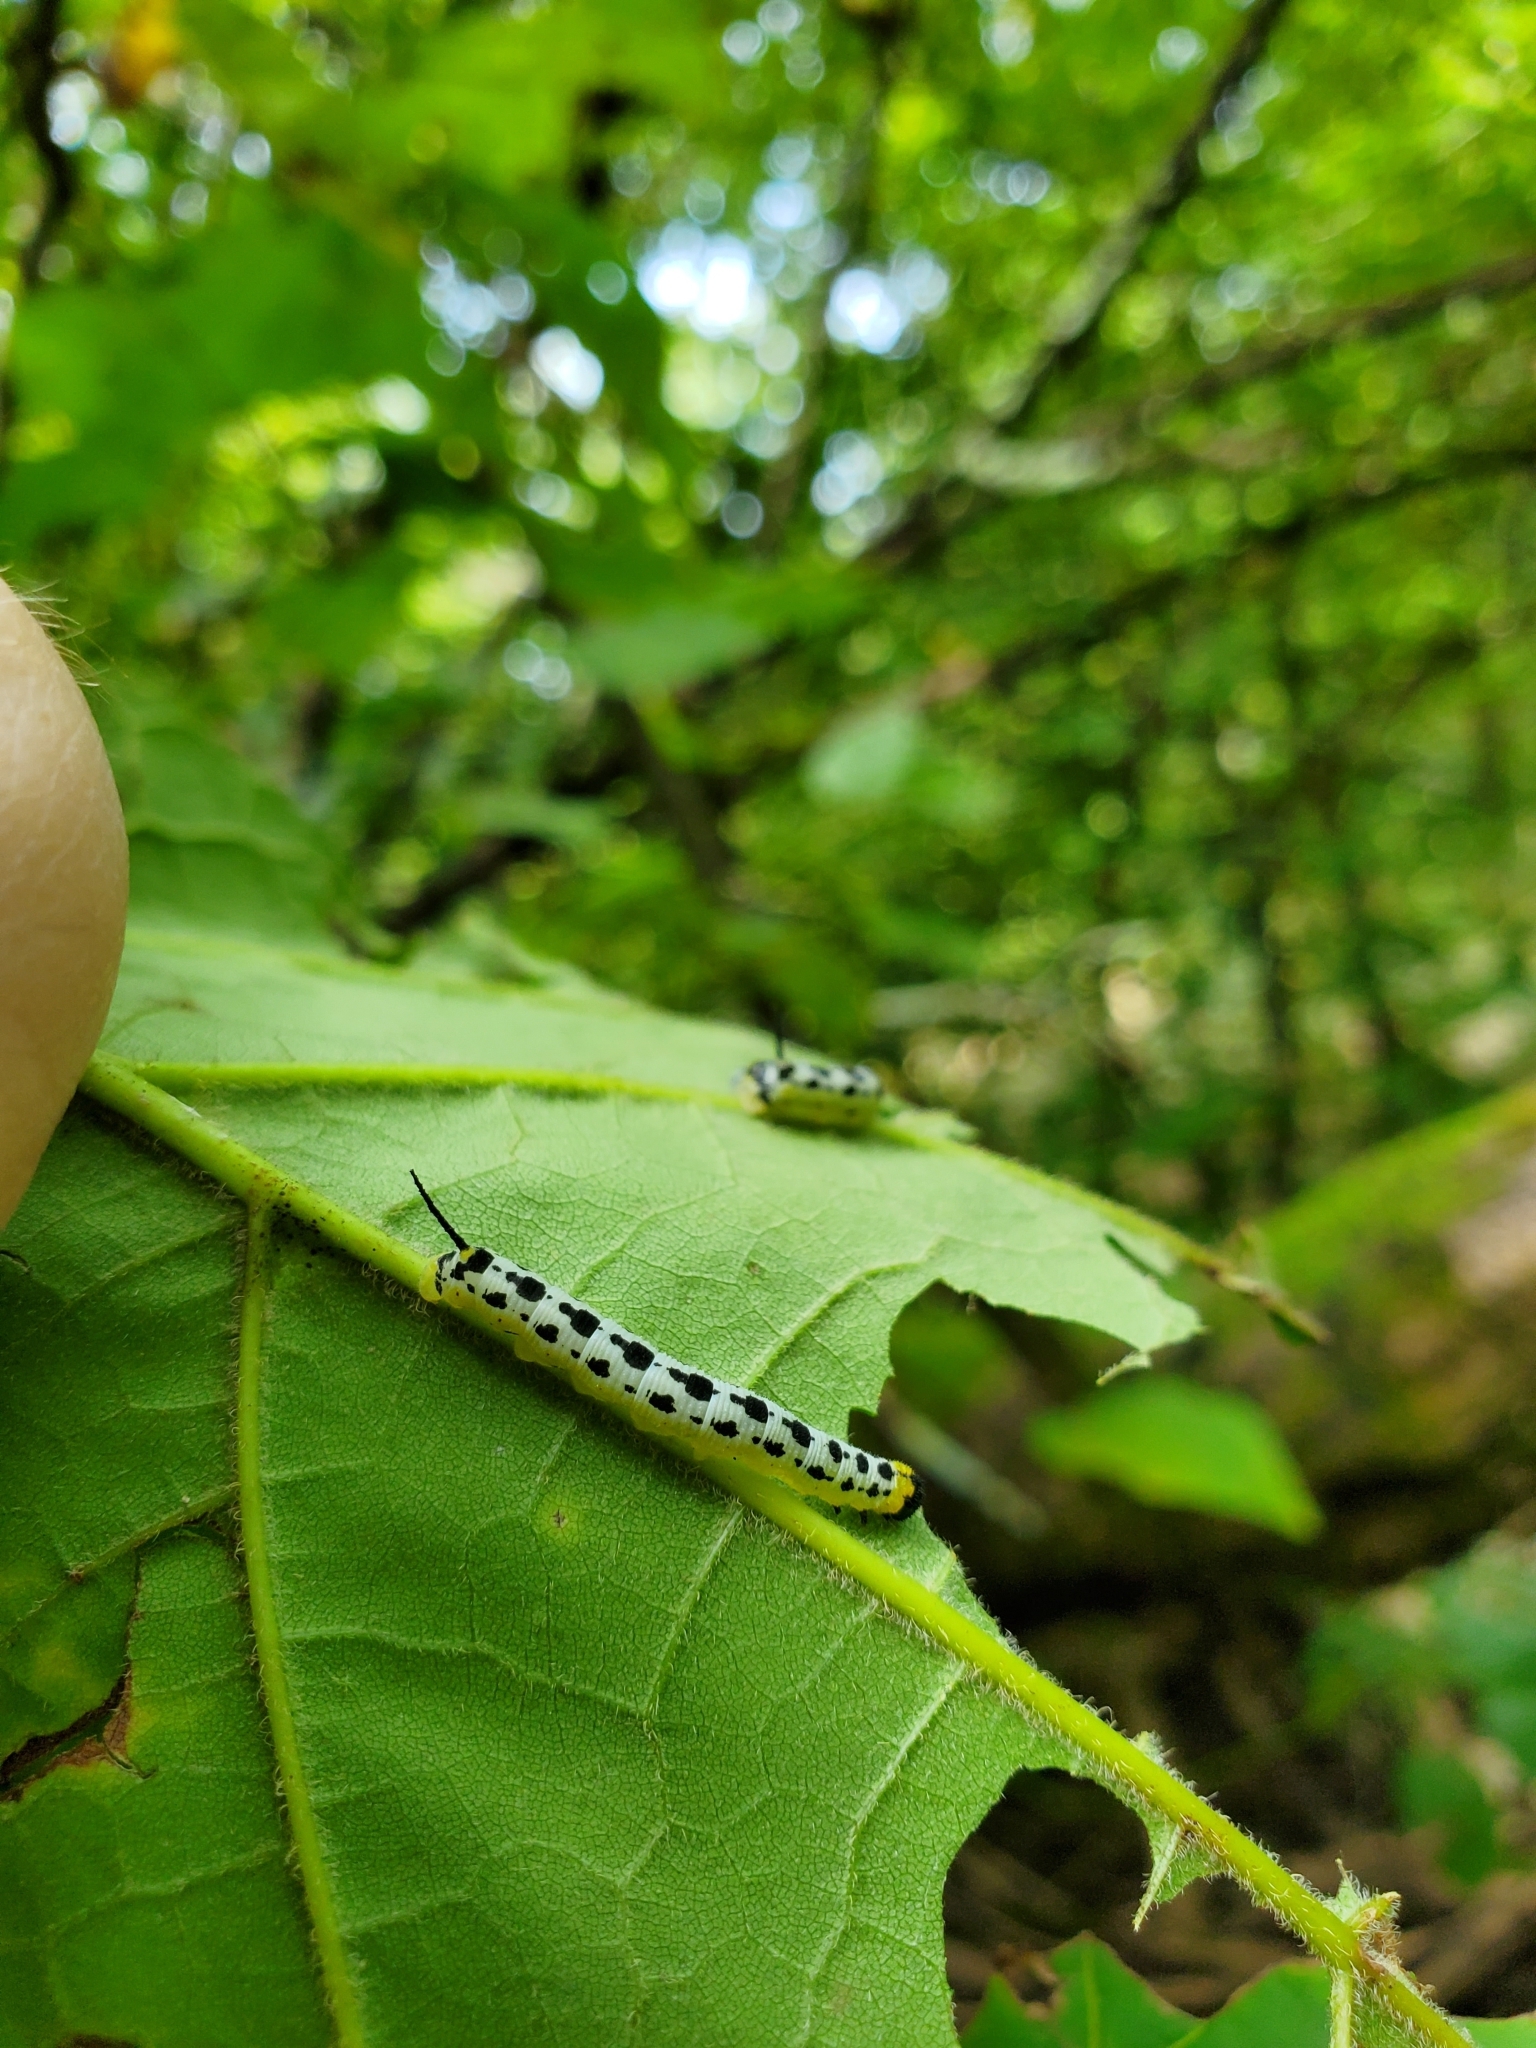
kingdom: Animalia
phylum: Arthropoda
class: Insecta
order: Lepidoptera
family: Sphingidae
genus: Ceratomia
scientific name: Ceratomia catalpae
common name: Catalpa hornworm
